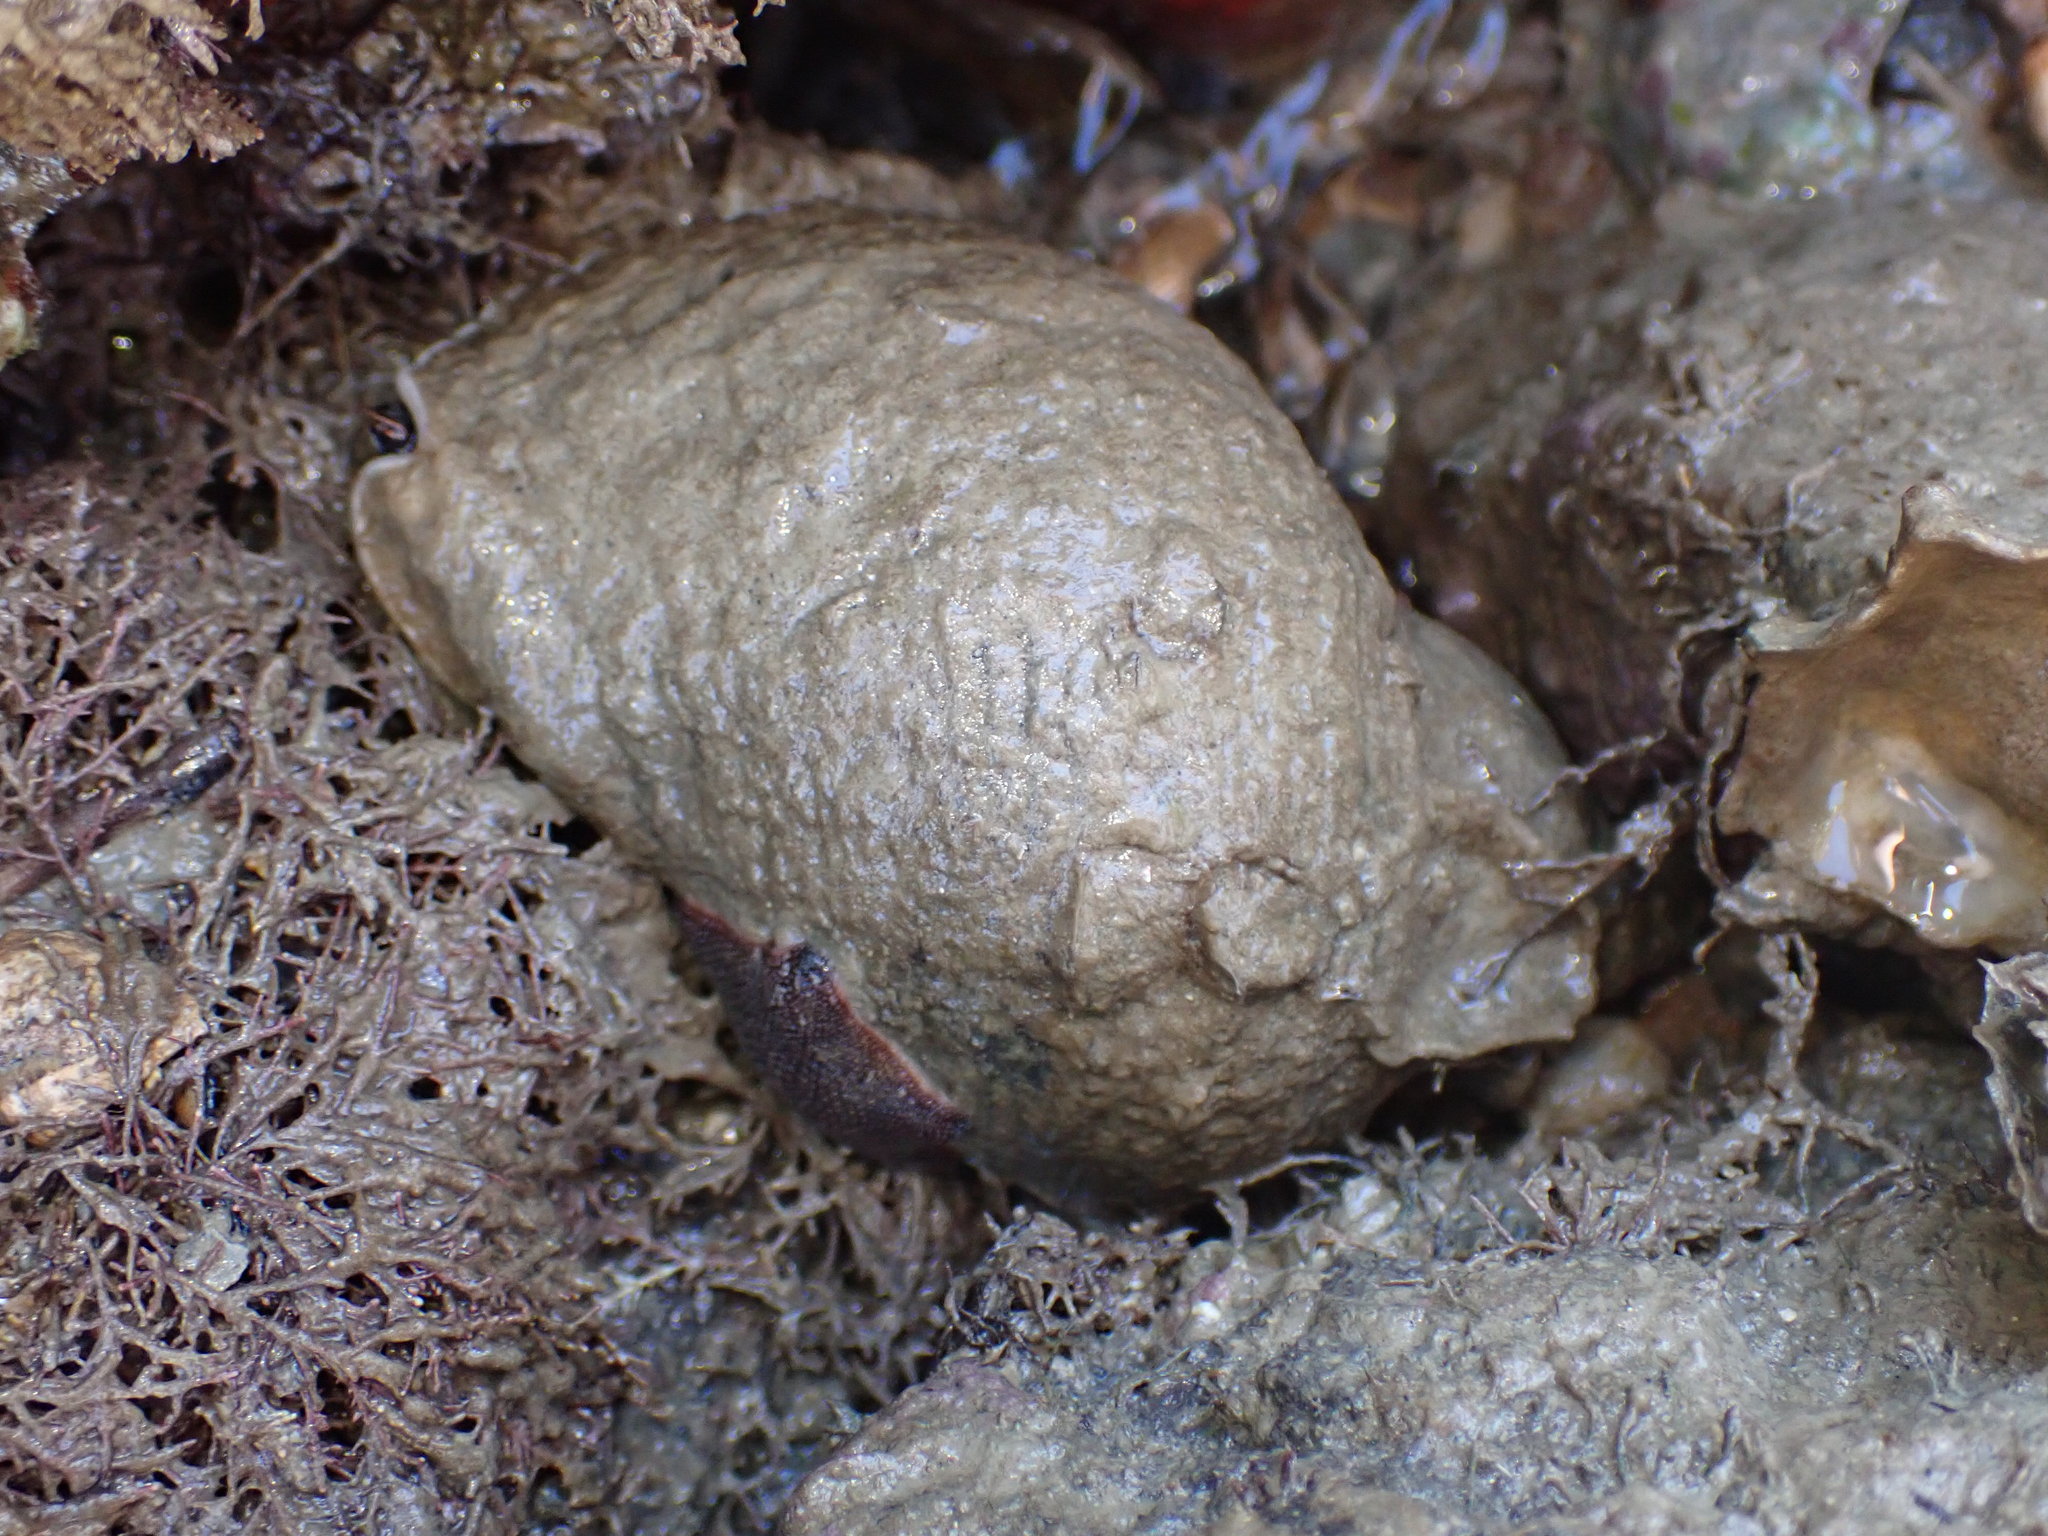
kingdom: Animalia
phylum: Mollusca
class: Gastropoda
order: Neogastropoda
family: Muricidae
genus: Dicathais
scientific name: Dicathais orbita
